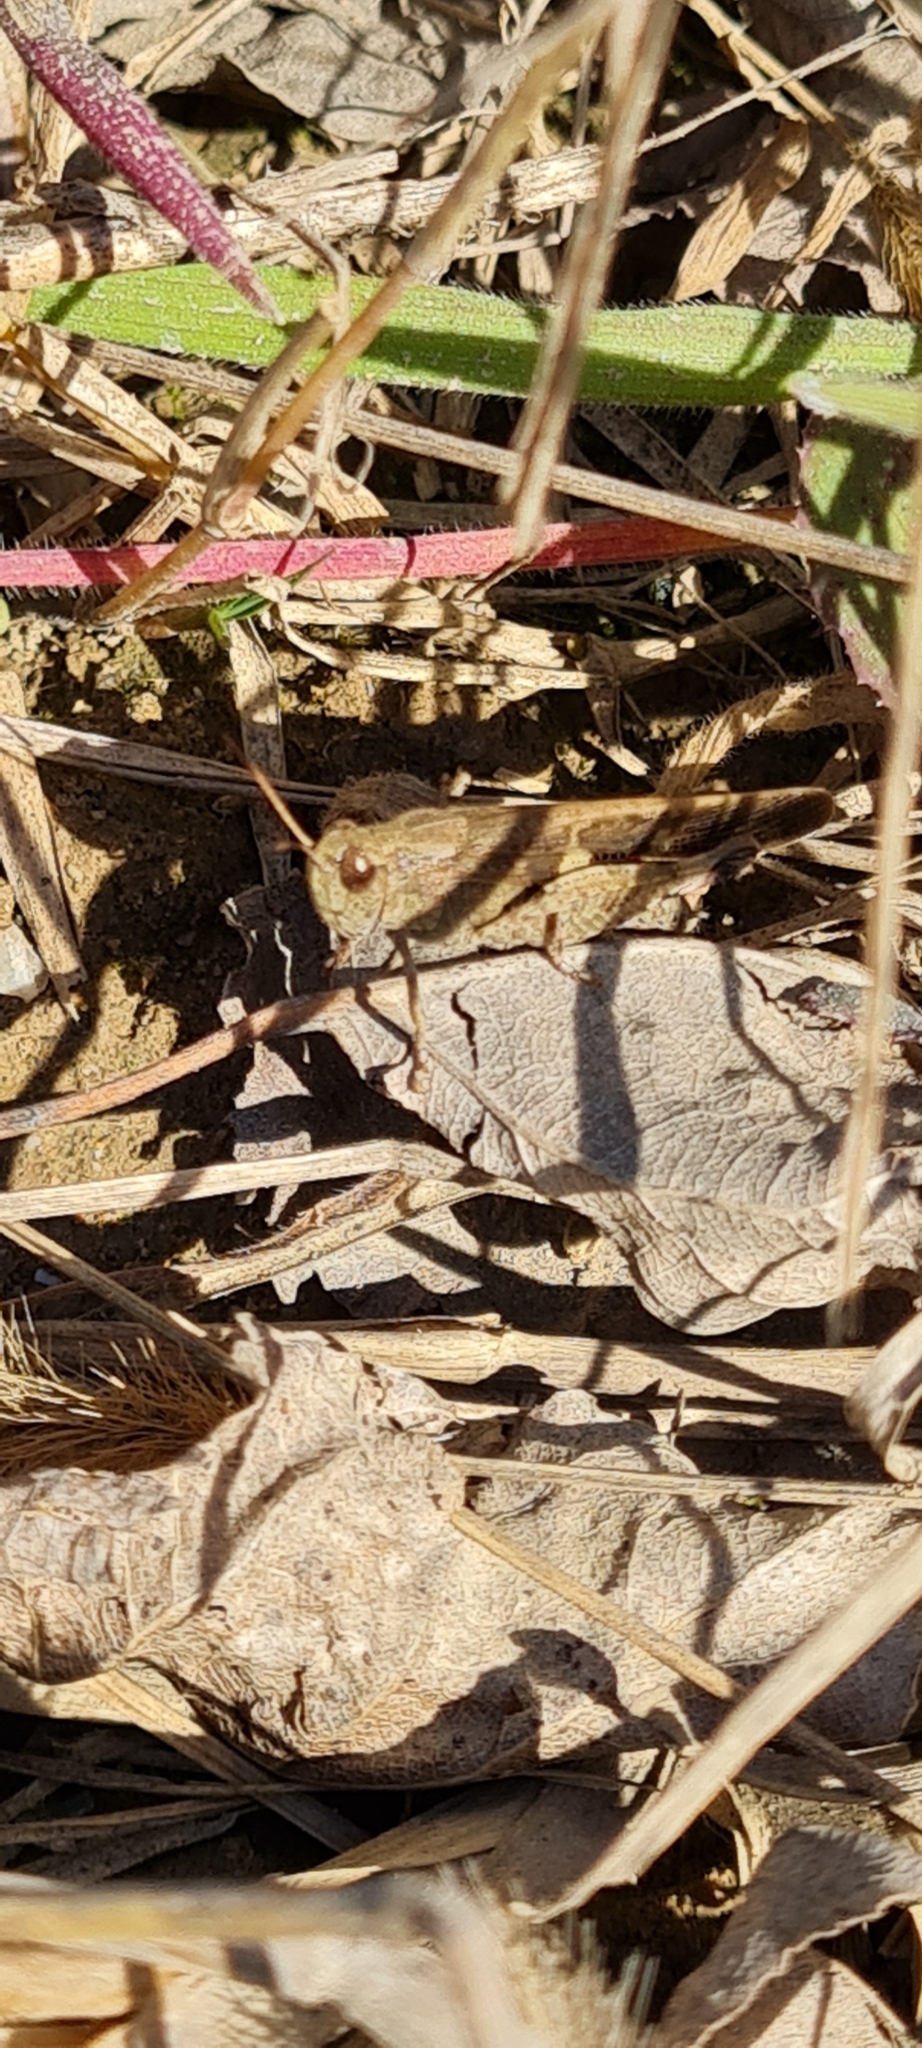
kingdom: Animalia
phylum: Arthropoda
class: Insecta
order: Orthoptera
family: Acrididae
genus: Aiolopus
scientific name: Aiolopus strepens
